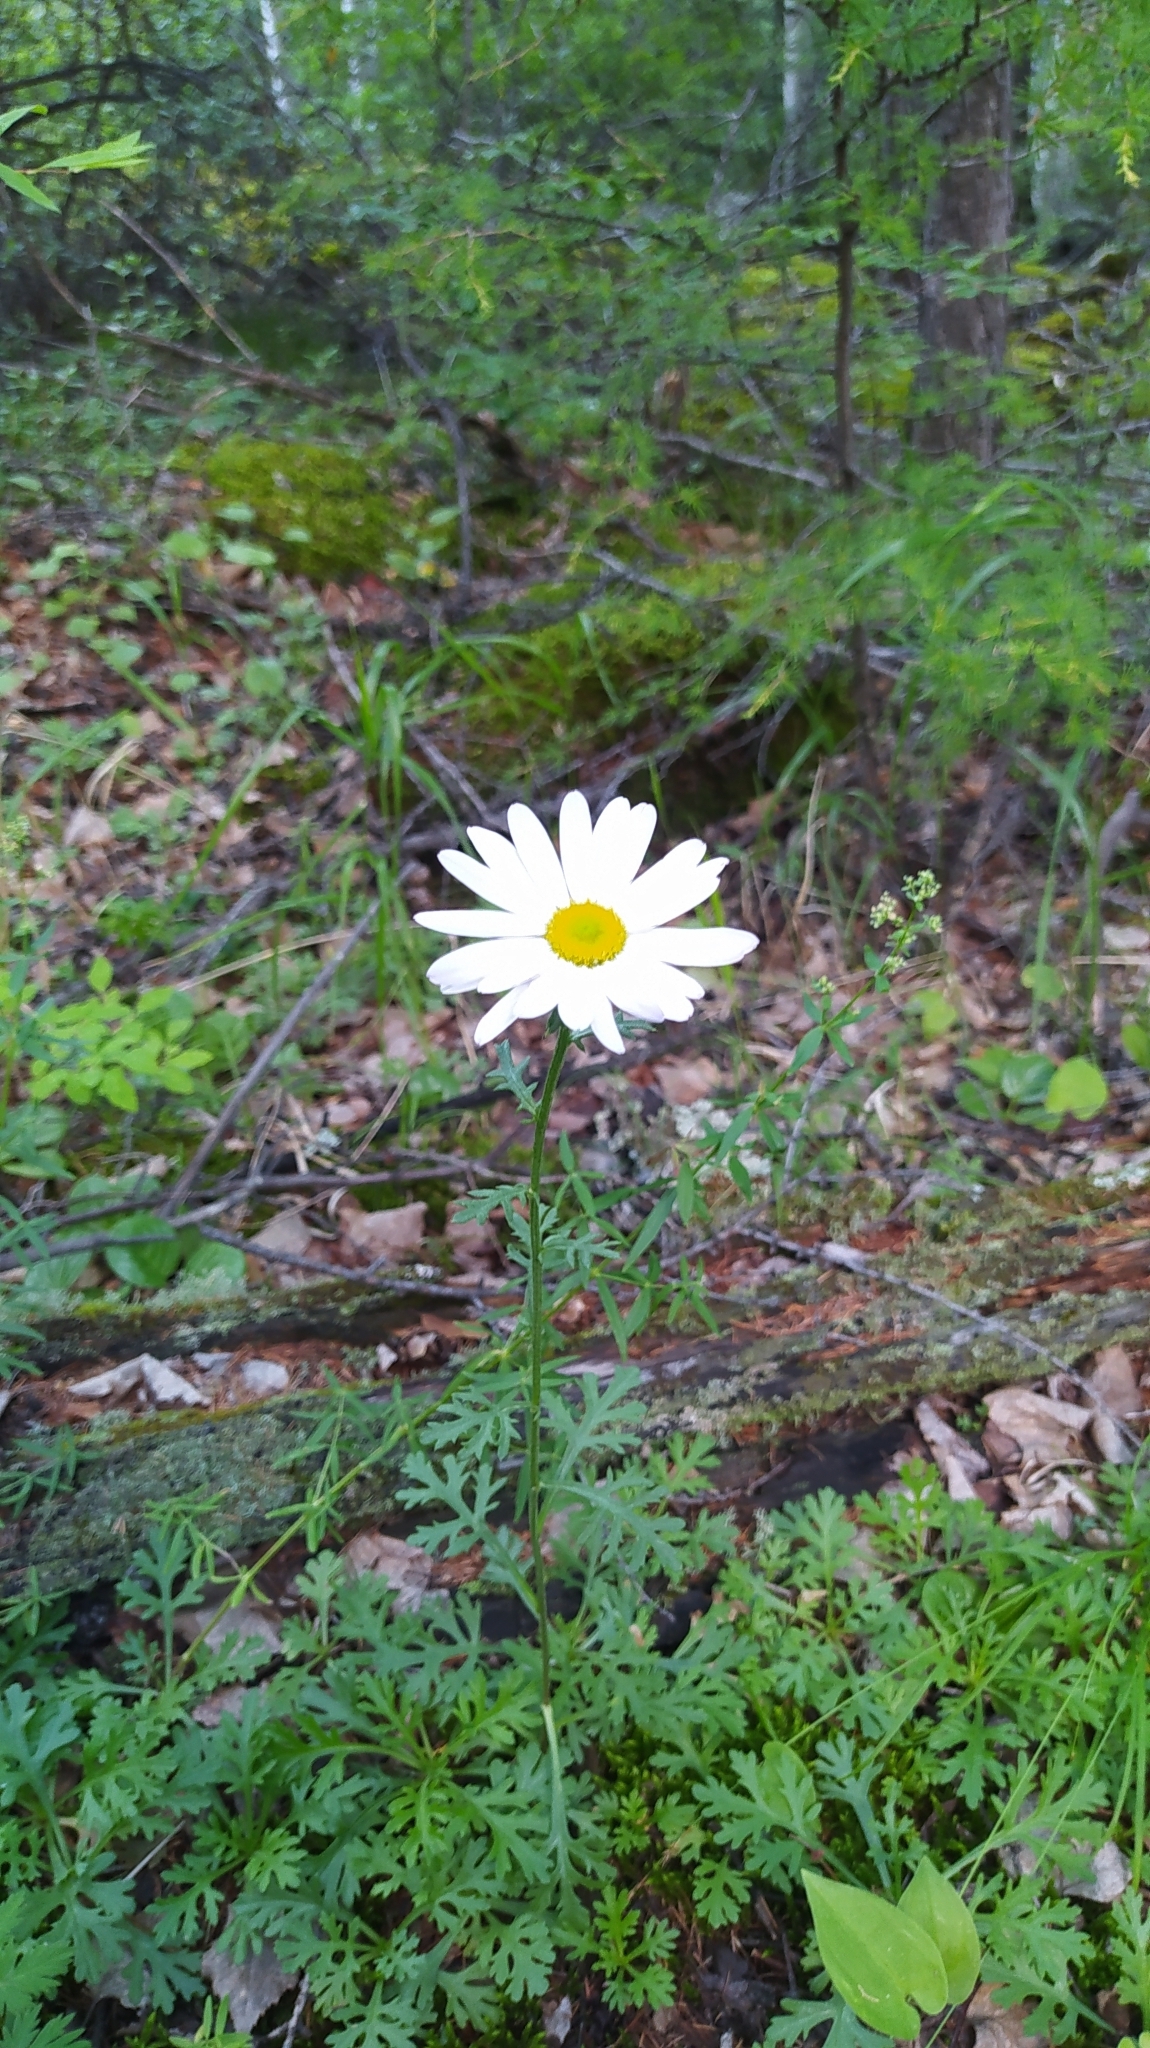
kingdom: Plantae
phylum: Tracheophyta
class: Magnoliopsida
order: Asterales
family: Asteraceae
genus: Chrysanthemum
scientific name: Chrysanthemum zawadzkii
